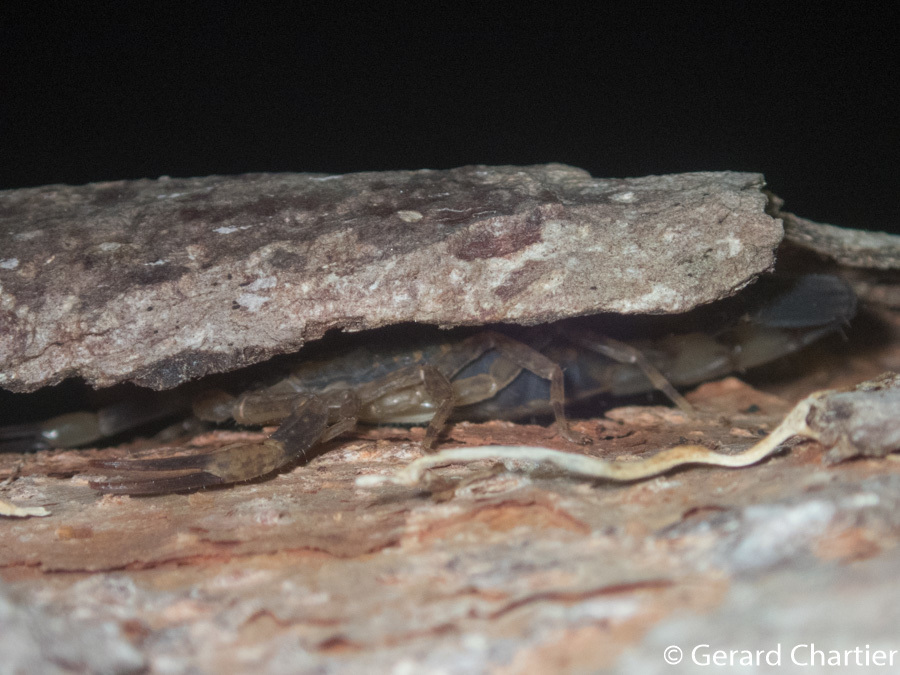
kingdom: Animalia
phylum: Arthropoda
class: Arachnida
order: Scorpiones
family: Buthidae
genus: Lychas
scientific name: Lychas mucronatus
